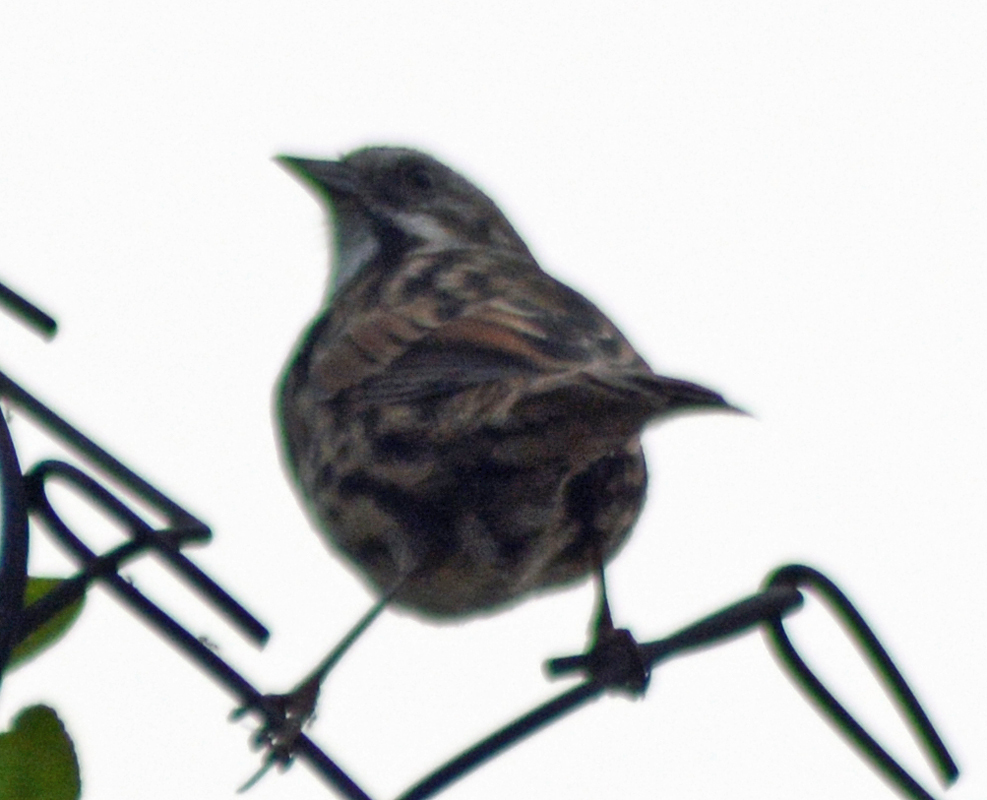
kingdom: Animalia
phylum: Chordata
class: Aves
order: Passeriformes
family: Passerellidae
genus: Melospiza
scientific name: Melospiza melodia
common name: Song sparrow
